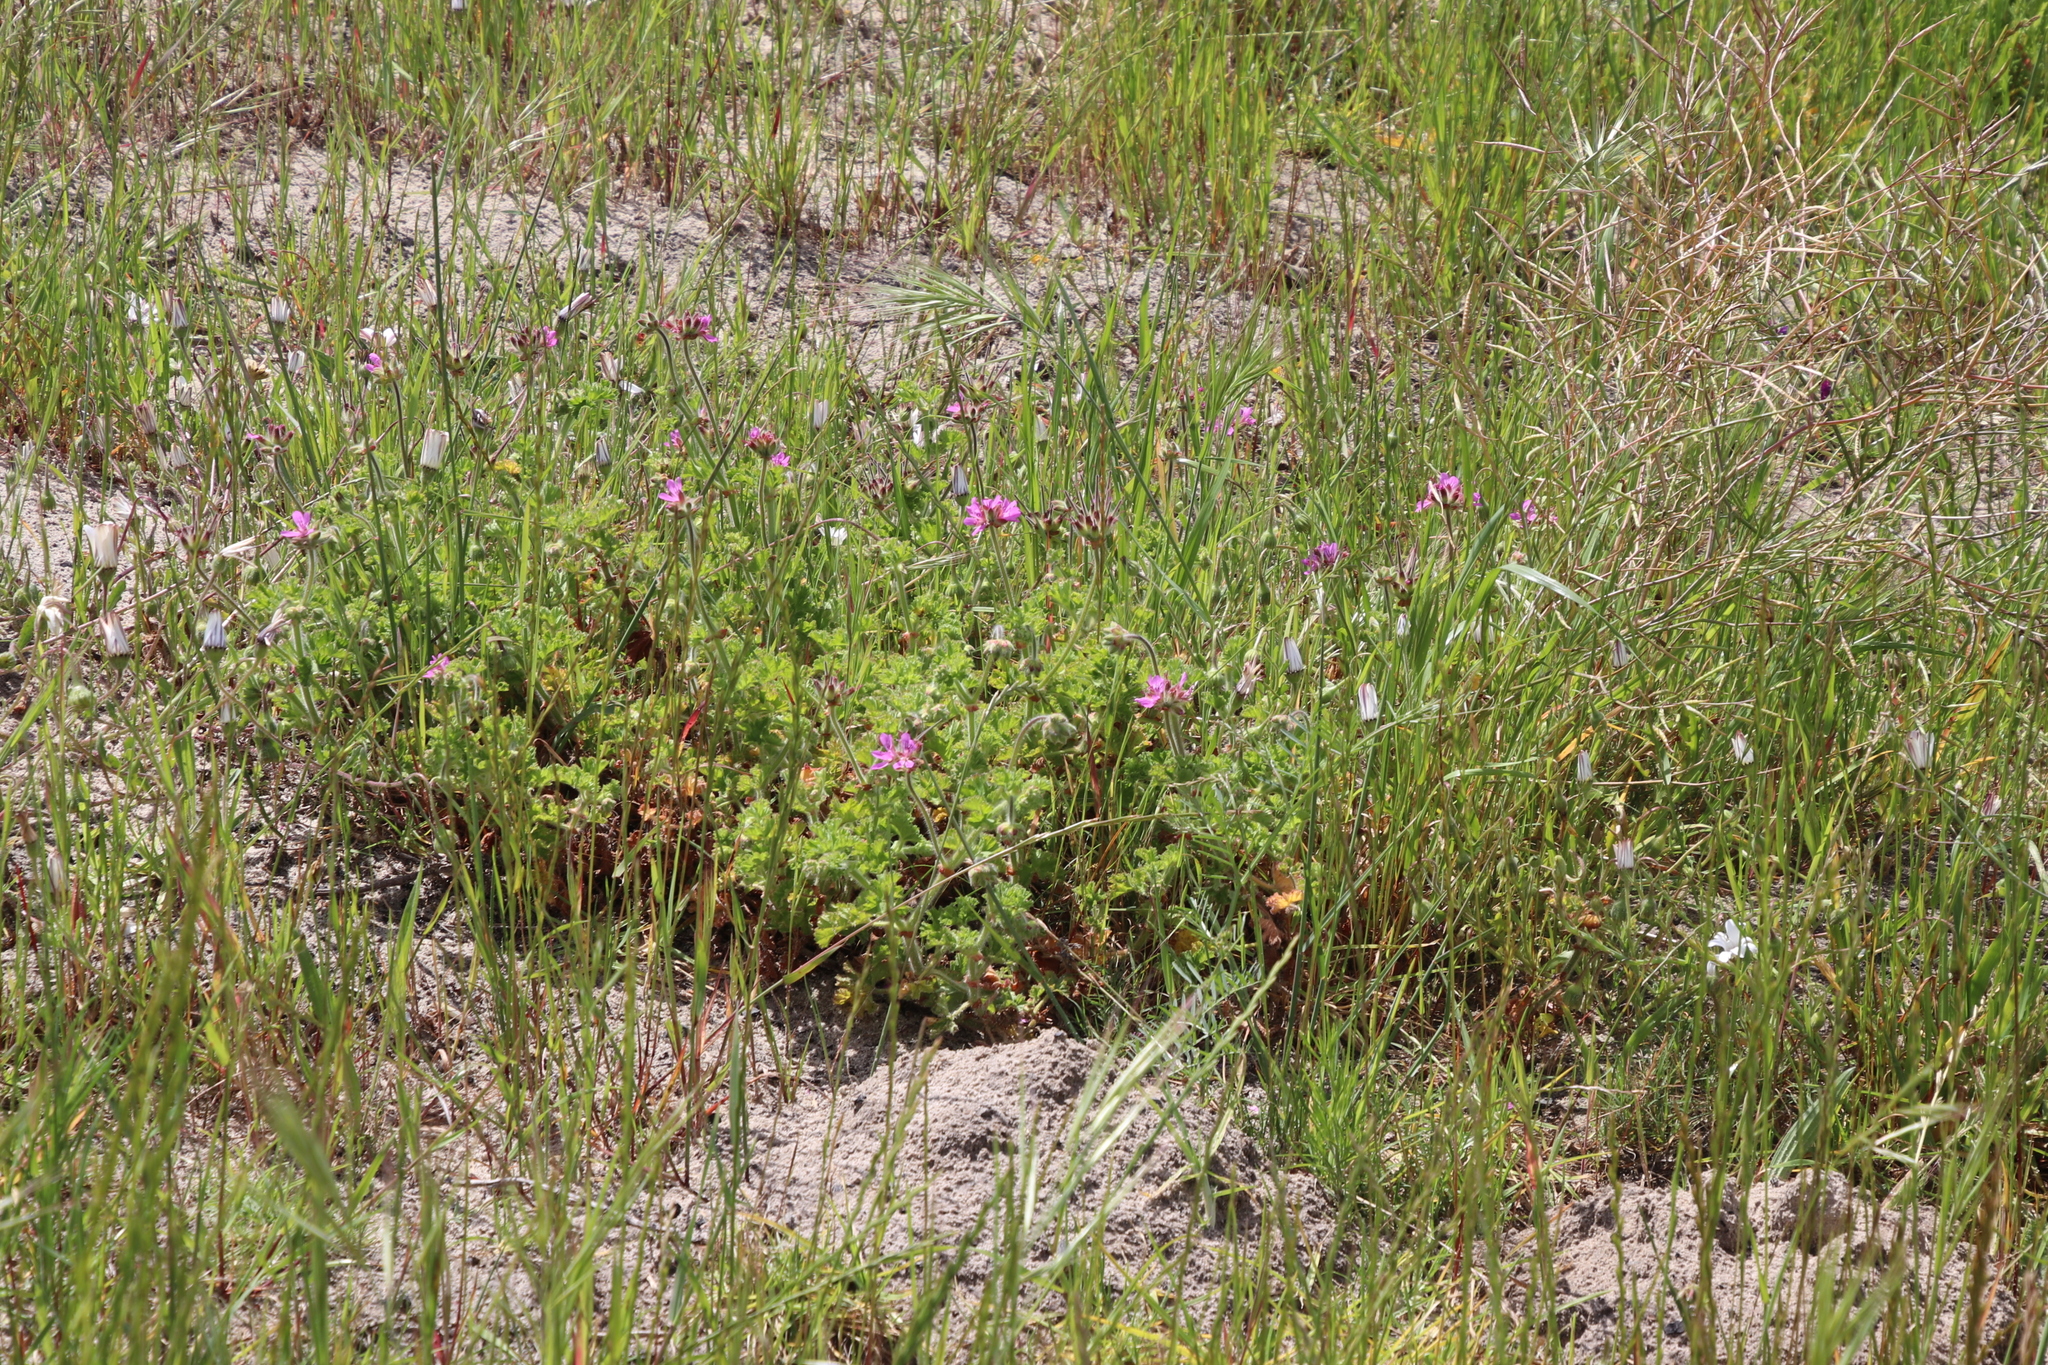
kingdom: Plantae
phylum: Tracheophyta
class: Magnoliopsida
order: Geraniales
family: Geraniaceae
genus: Pelargonium
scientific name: Pelargonium capitatum
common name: Rose scented geranium
